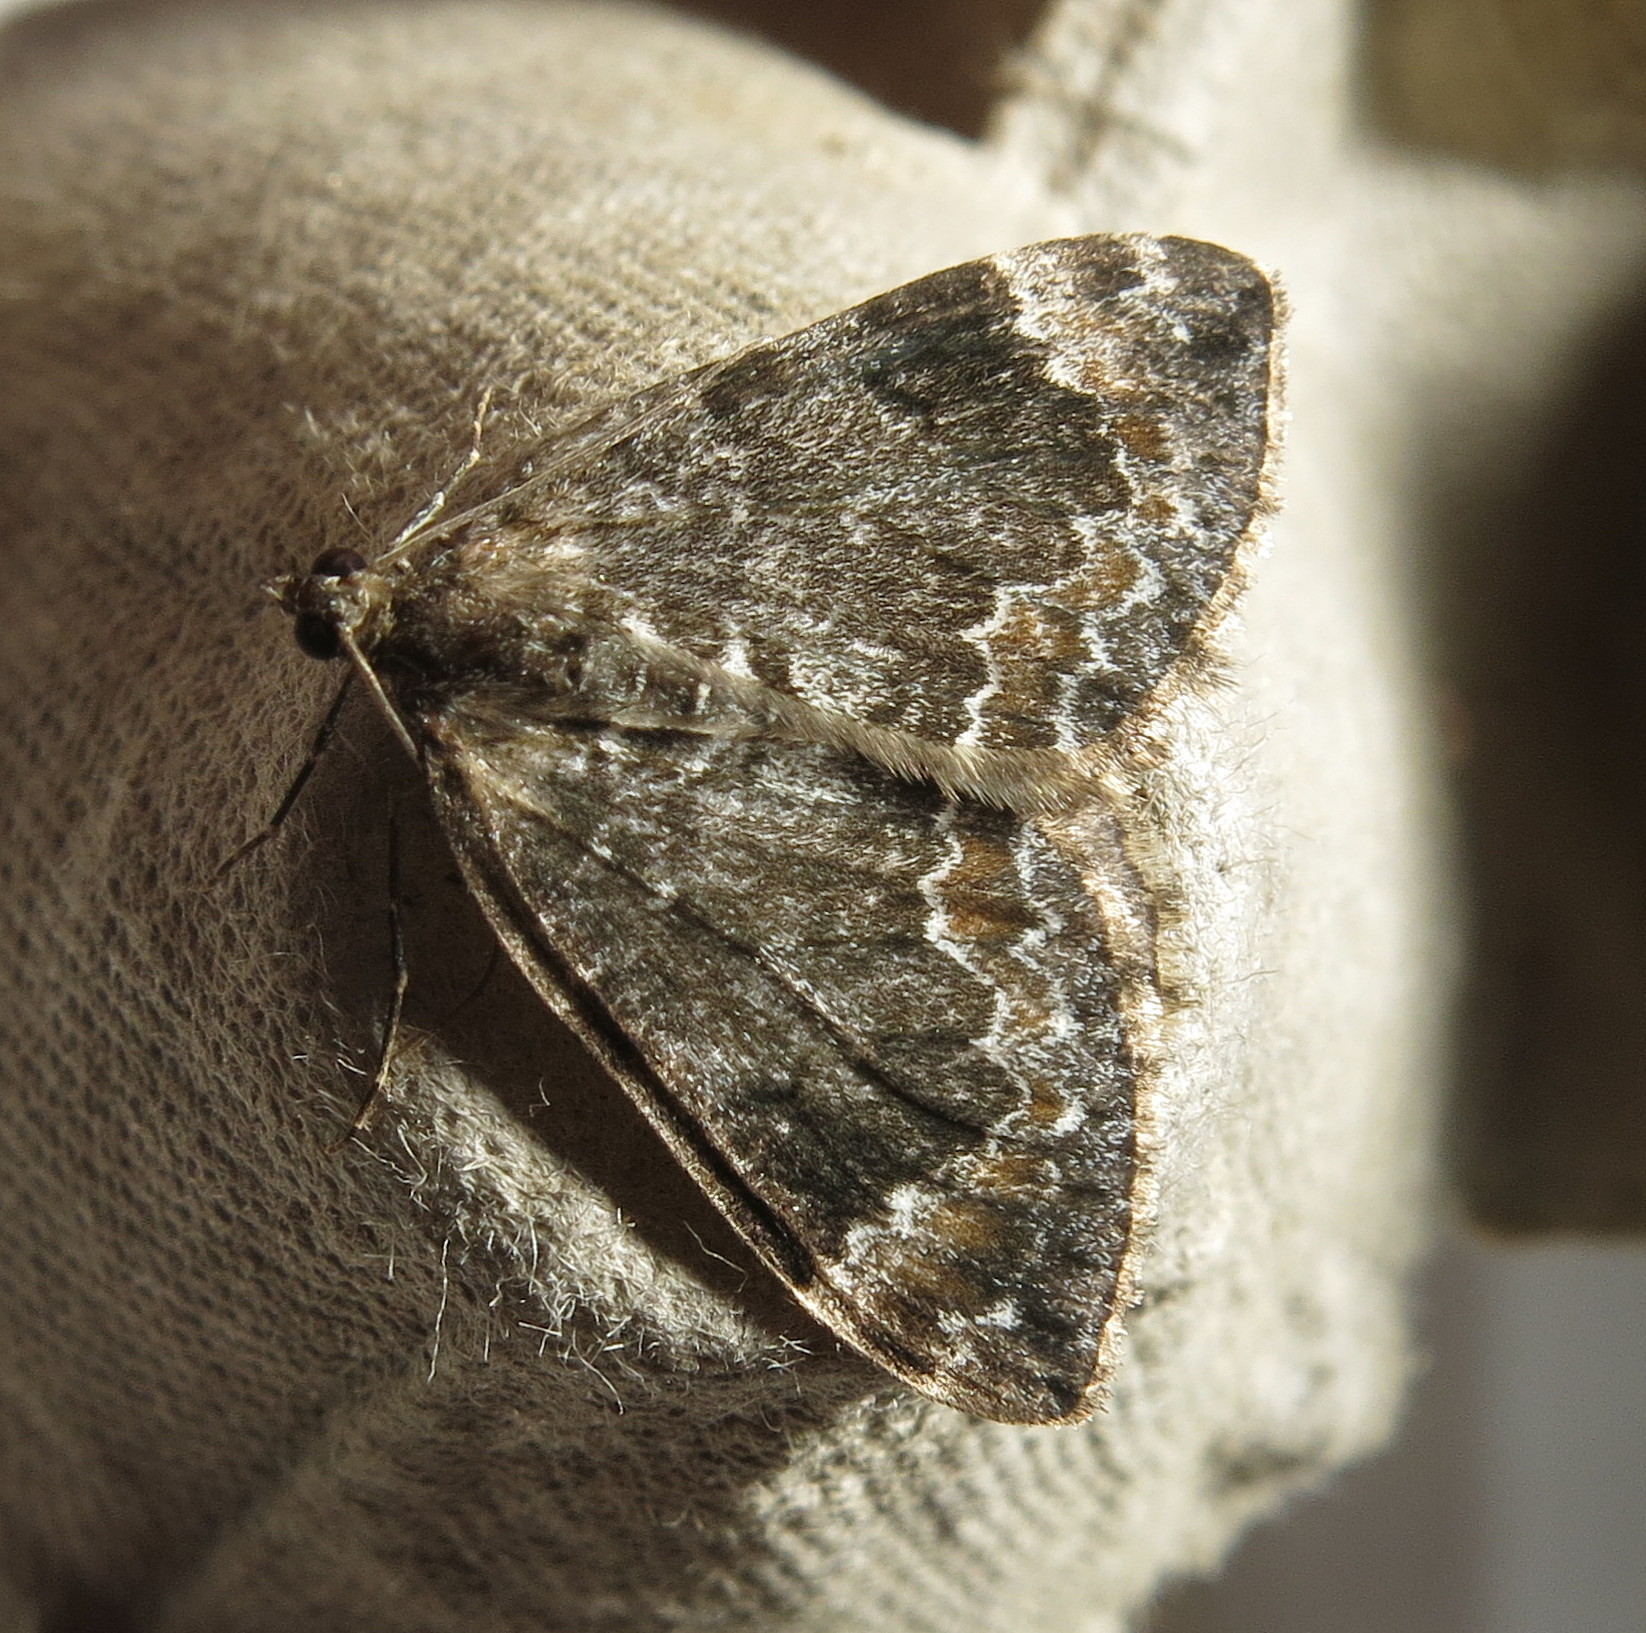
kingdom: Animalia
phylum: Arthropoda
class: Insecta
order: Lepidoptera
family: Geometridae
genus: Dysstroma
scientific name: Dysstroma truncata
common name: Common marbled carpet
